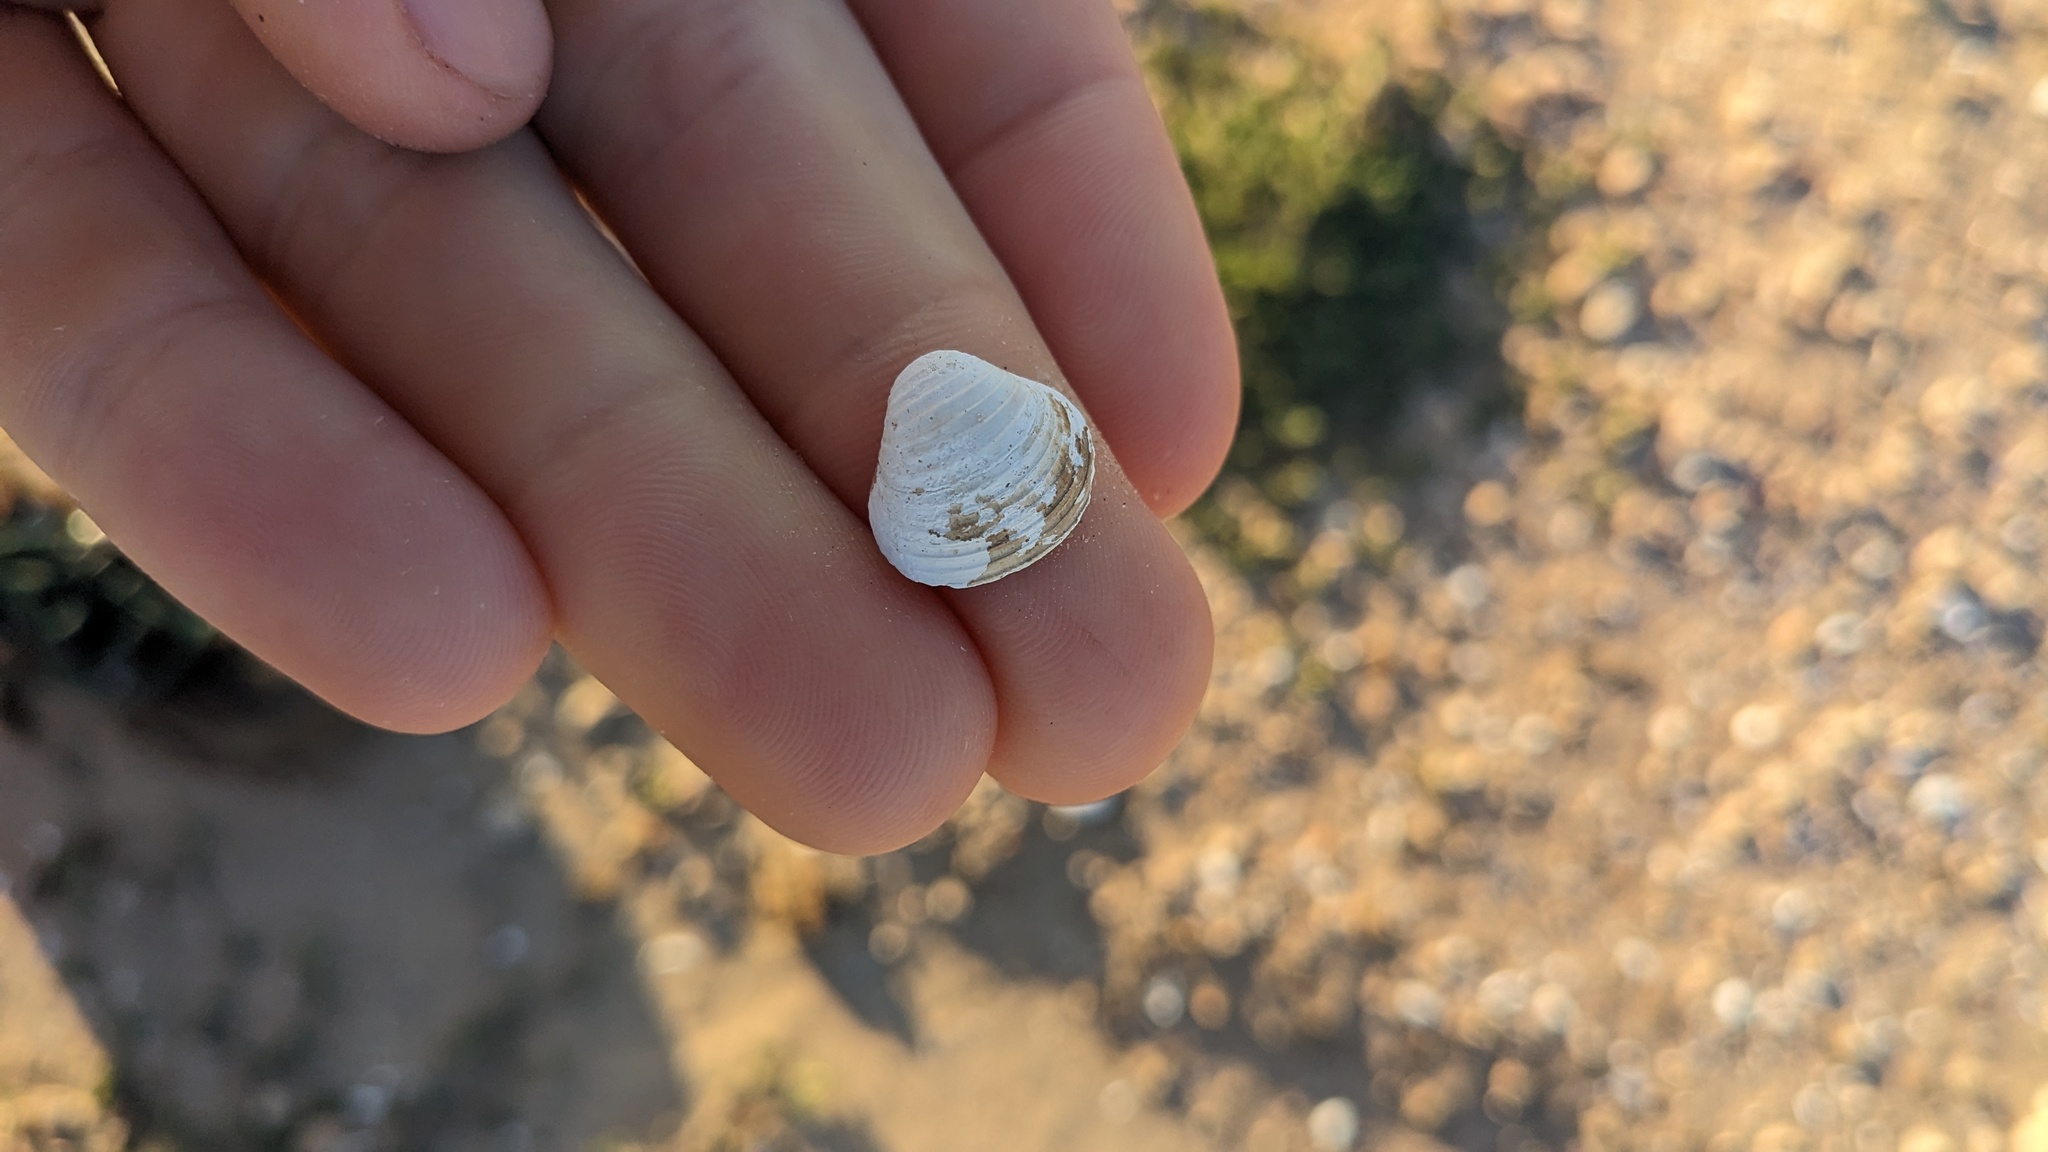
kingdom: Animalia
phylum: Mollusca
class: Bivalvia
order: Venerida
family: Cyrenidae
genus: Corbicula
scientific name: Corbicula fluminea
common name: Asian clam
